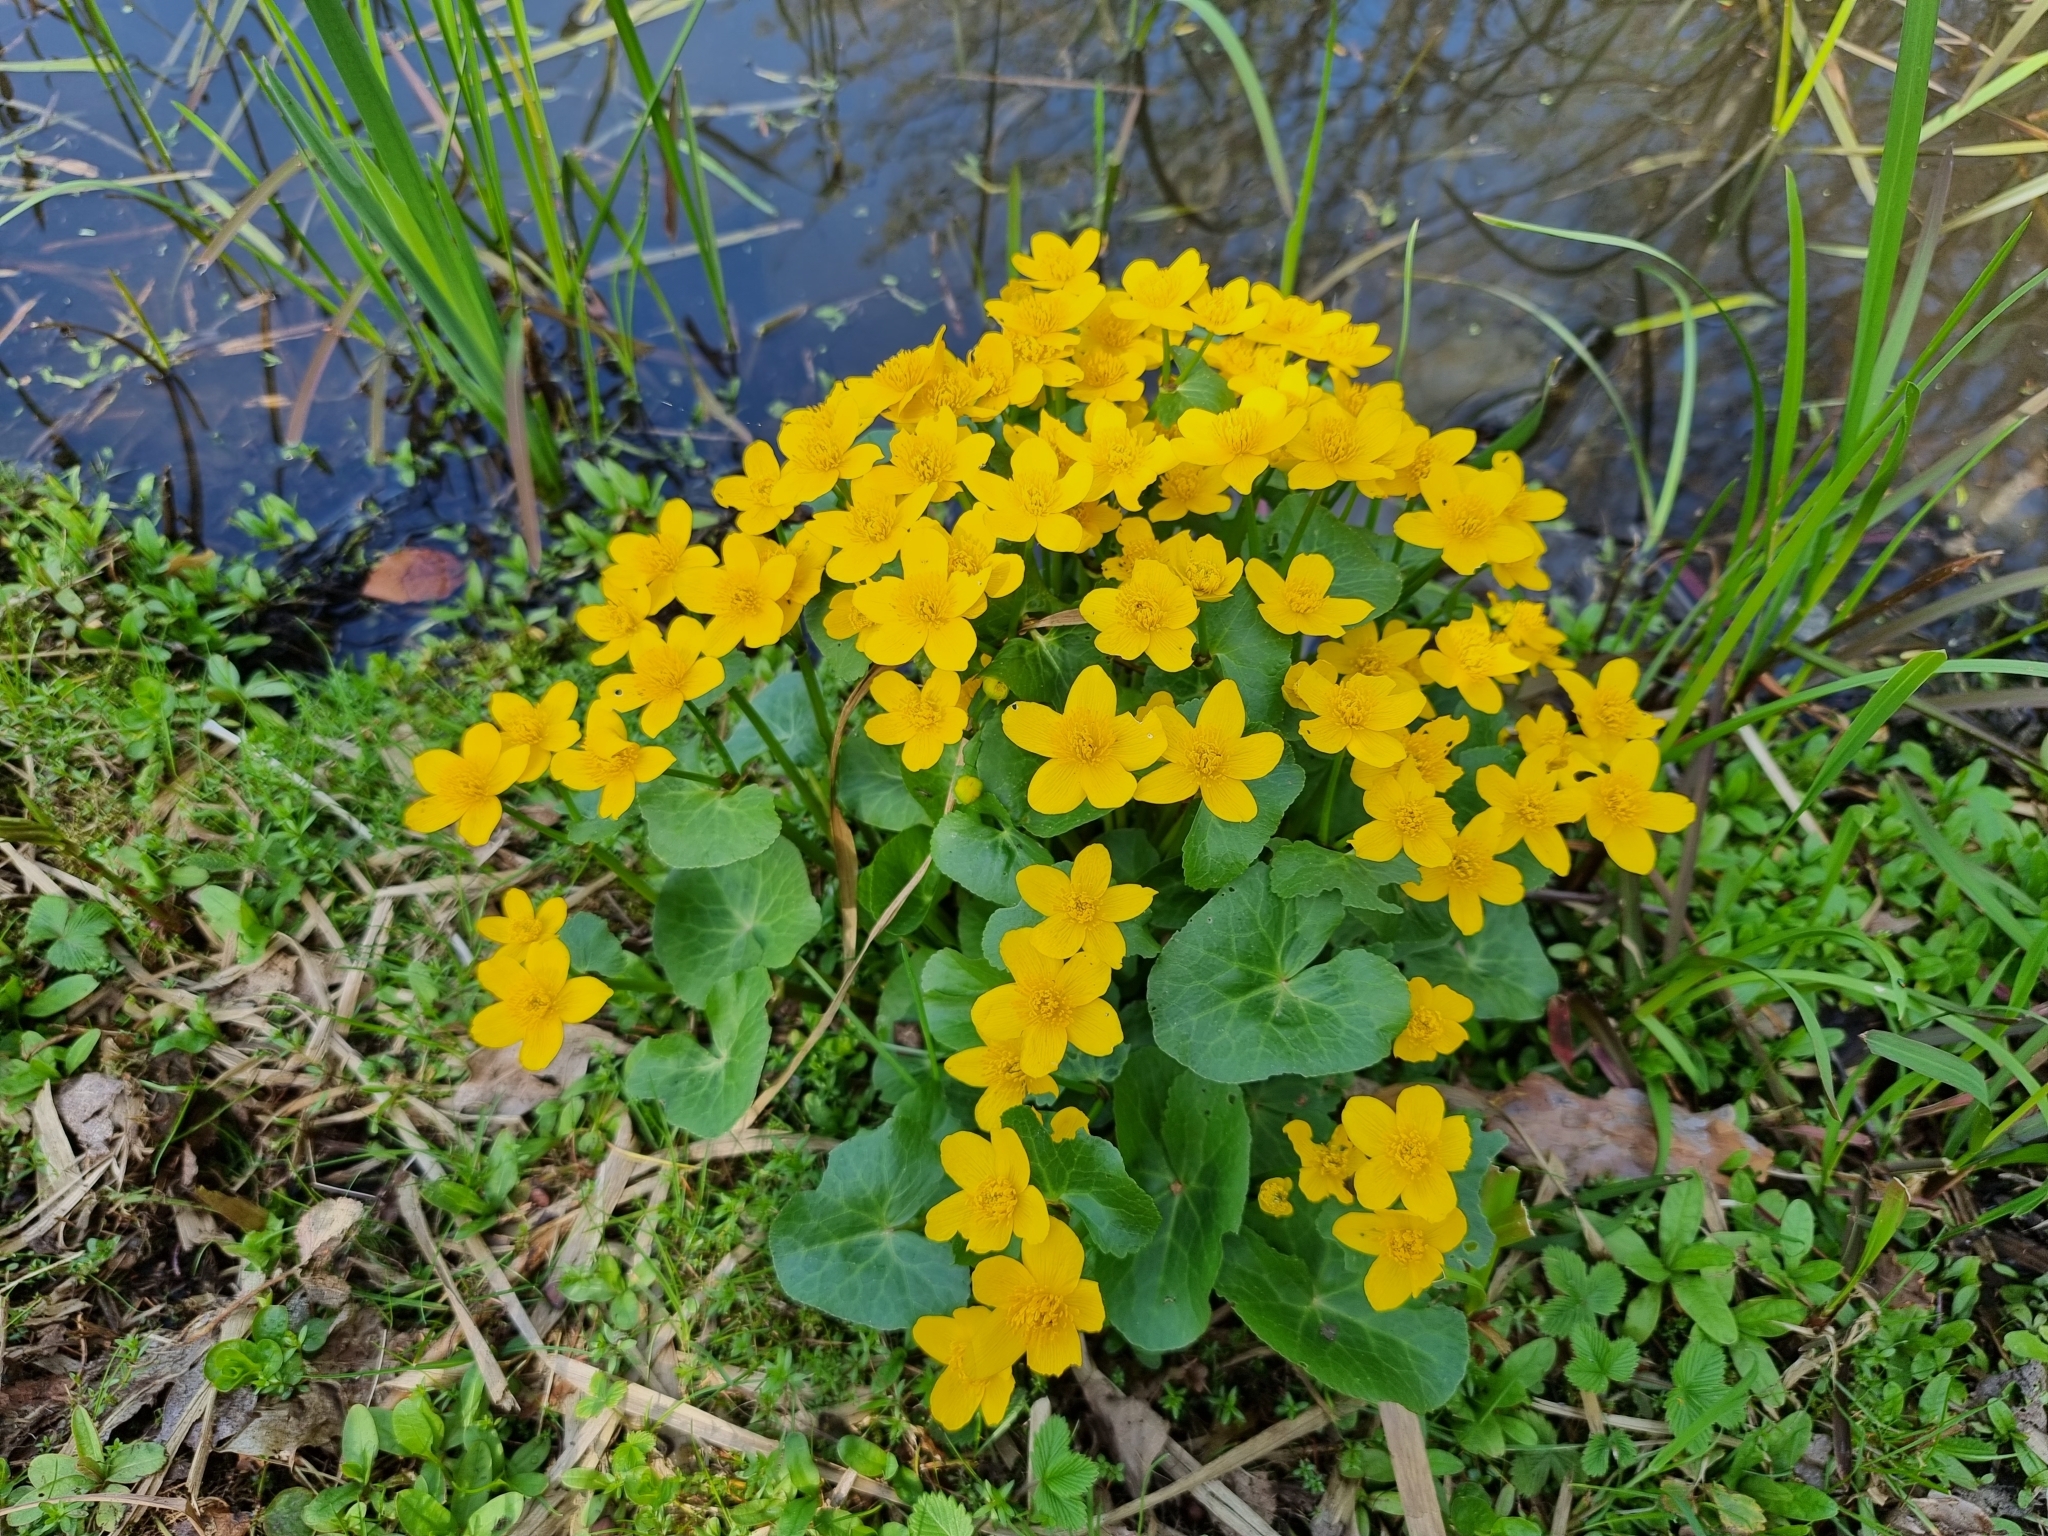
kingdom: Plantae
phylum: Tracheophyta
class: Magnoliopsida
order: Ranunculales
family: Ranunculaceae
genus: Caltha
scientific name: Caltha palustris
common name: Marsh marigold
